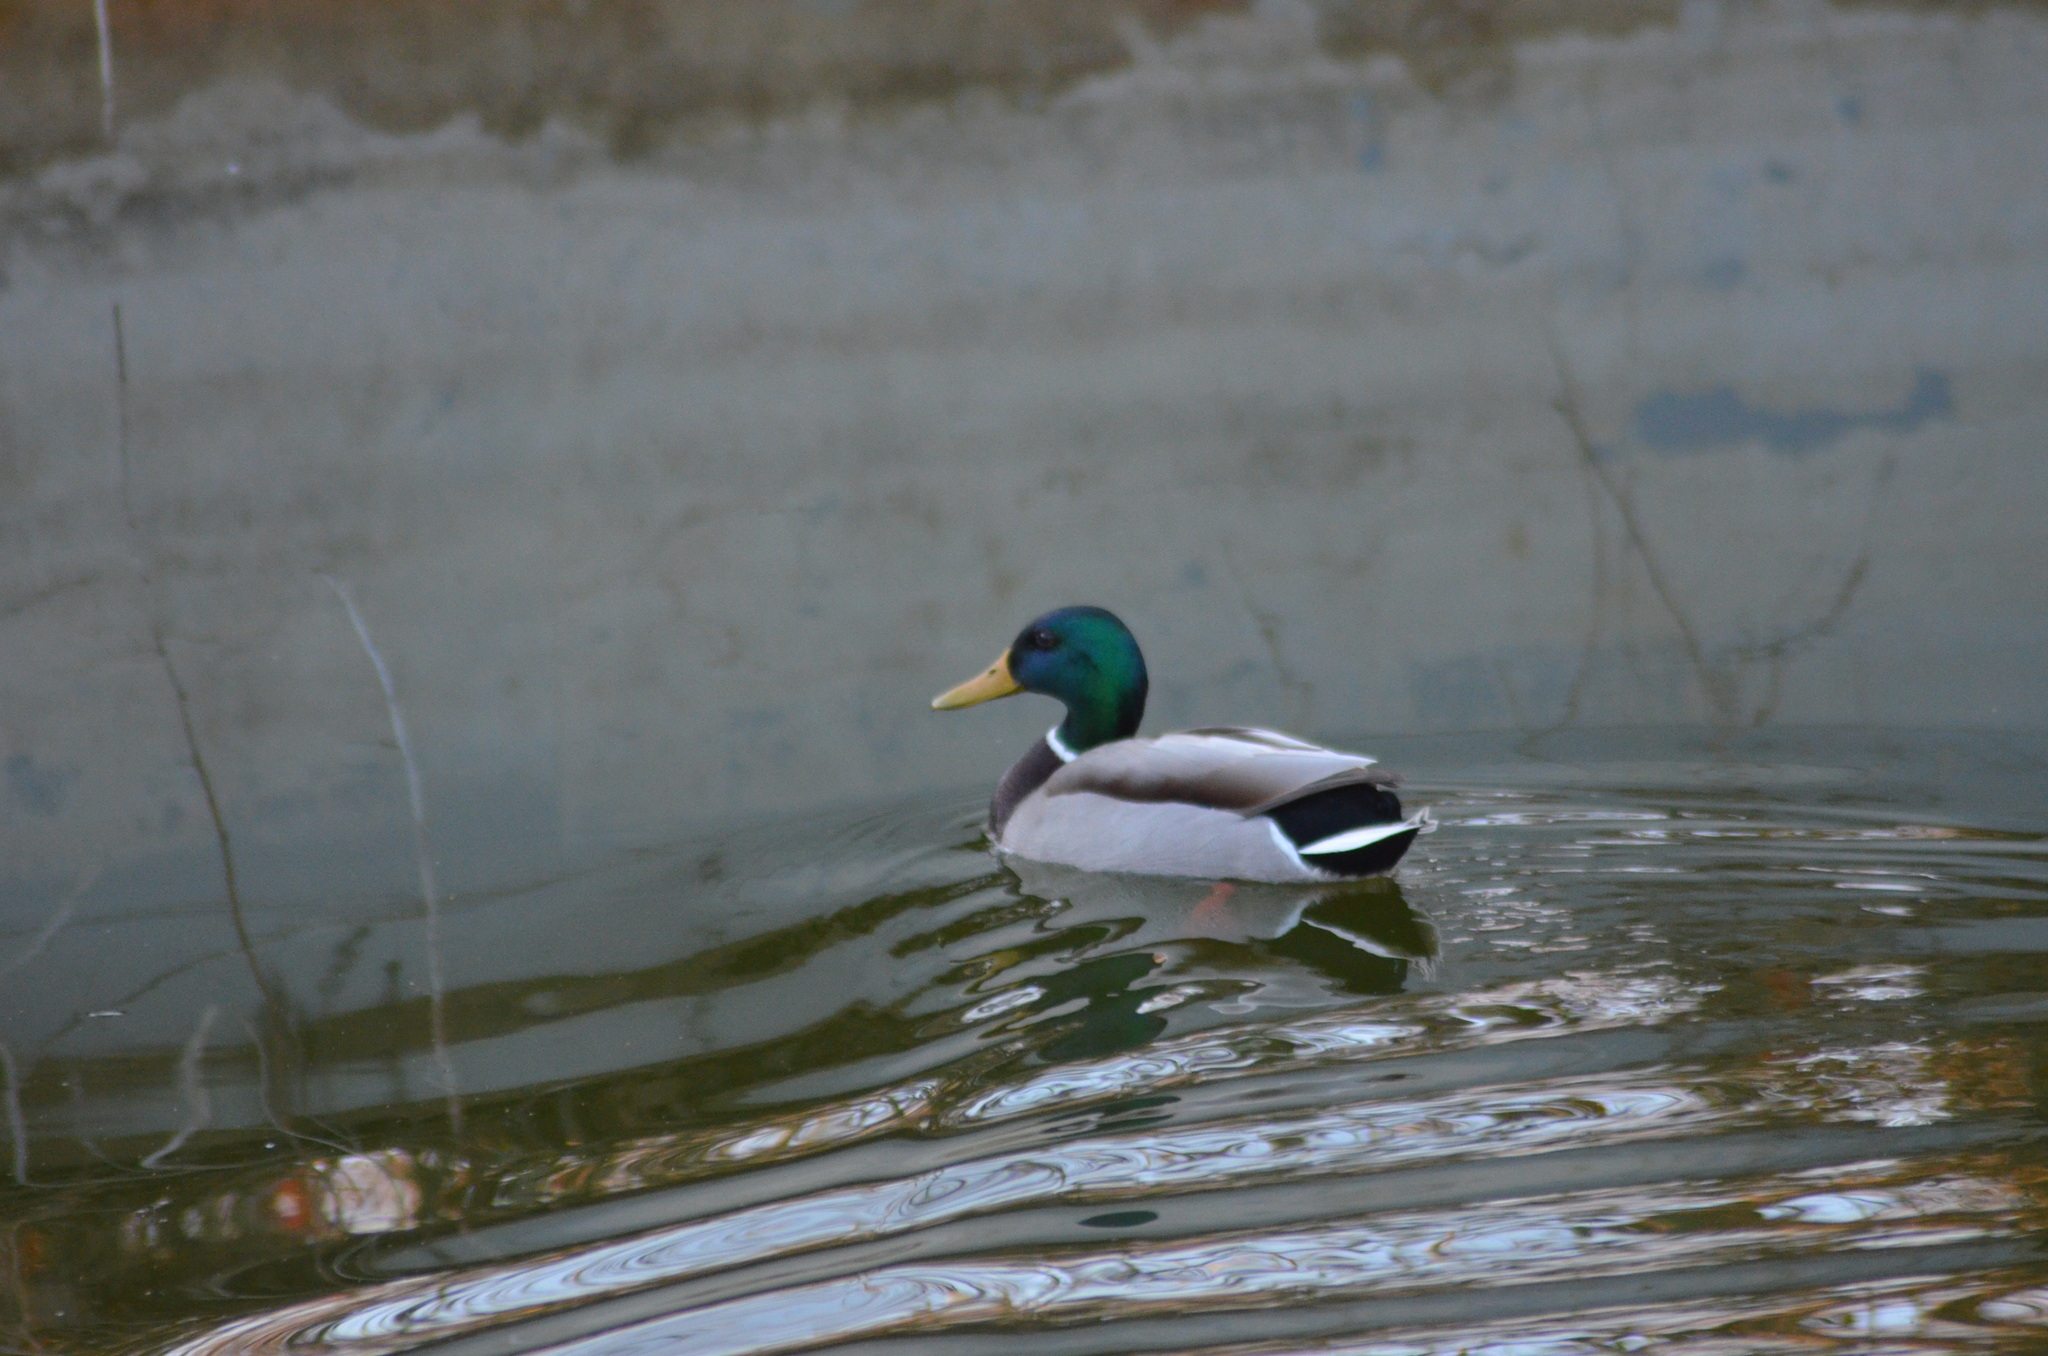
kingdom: Animalia
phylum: Chordata
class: Aves
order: Anseriformes
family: Anatidae
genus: Anas
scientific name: Anas platyrhynchos
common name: Mallard
